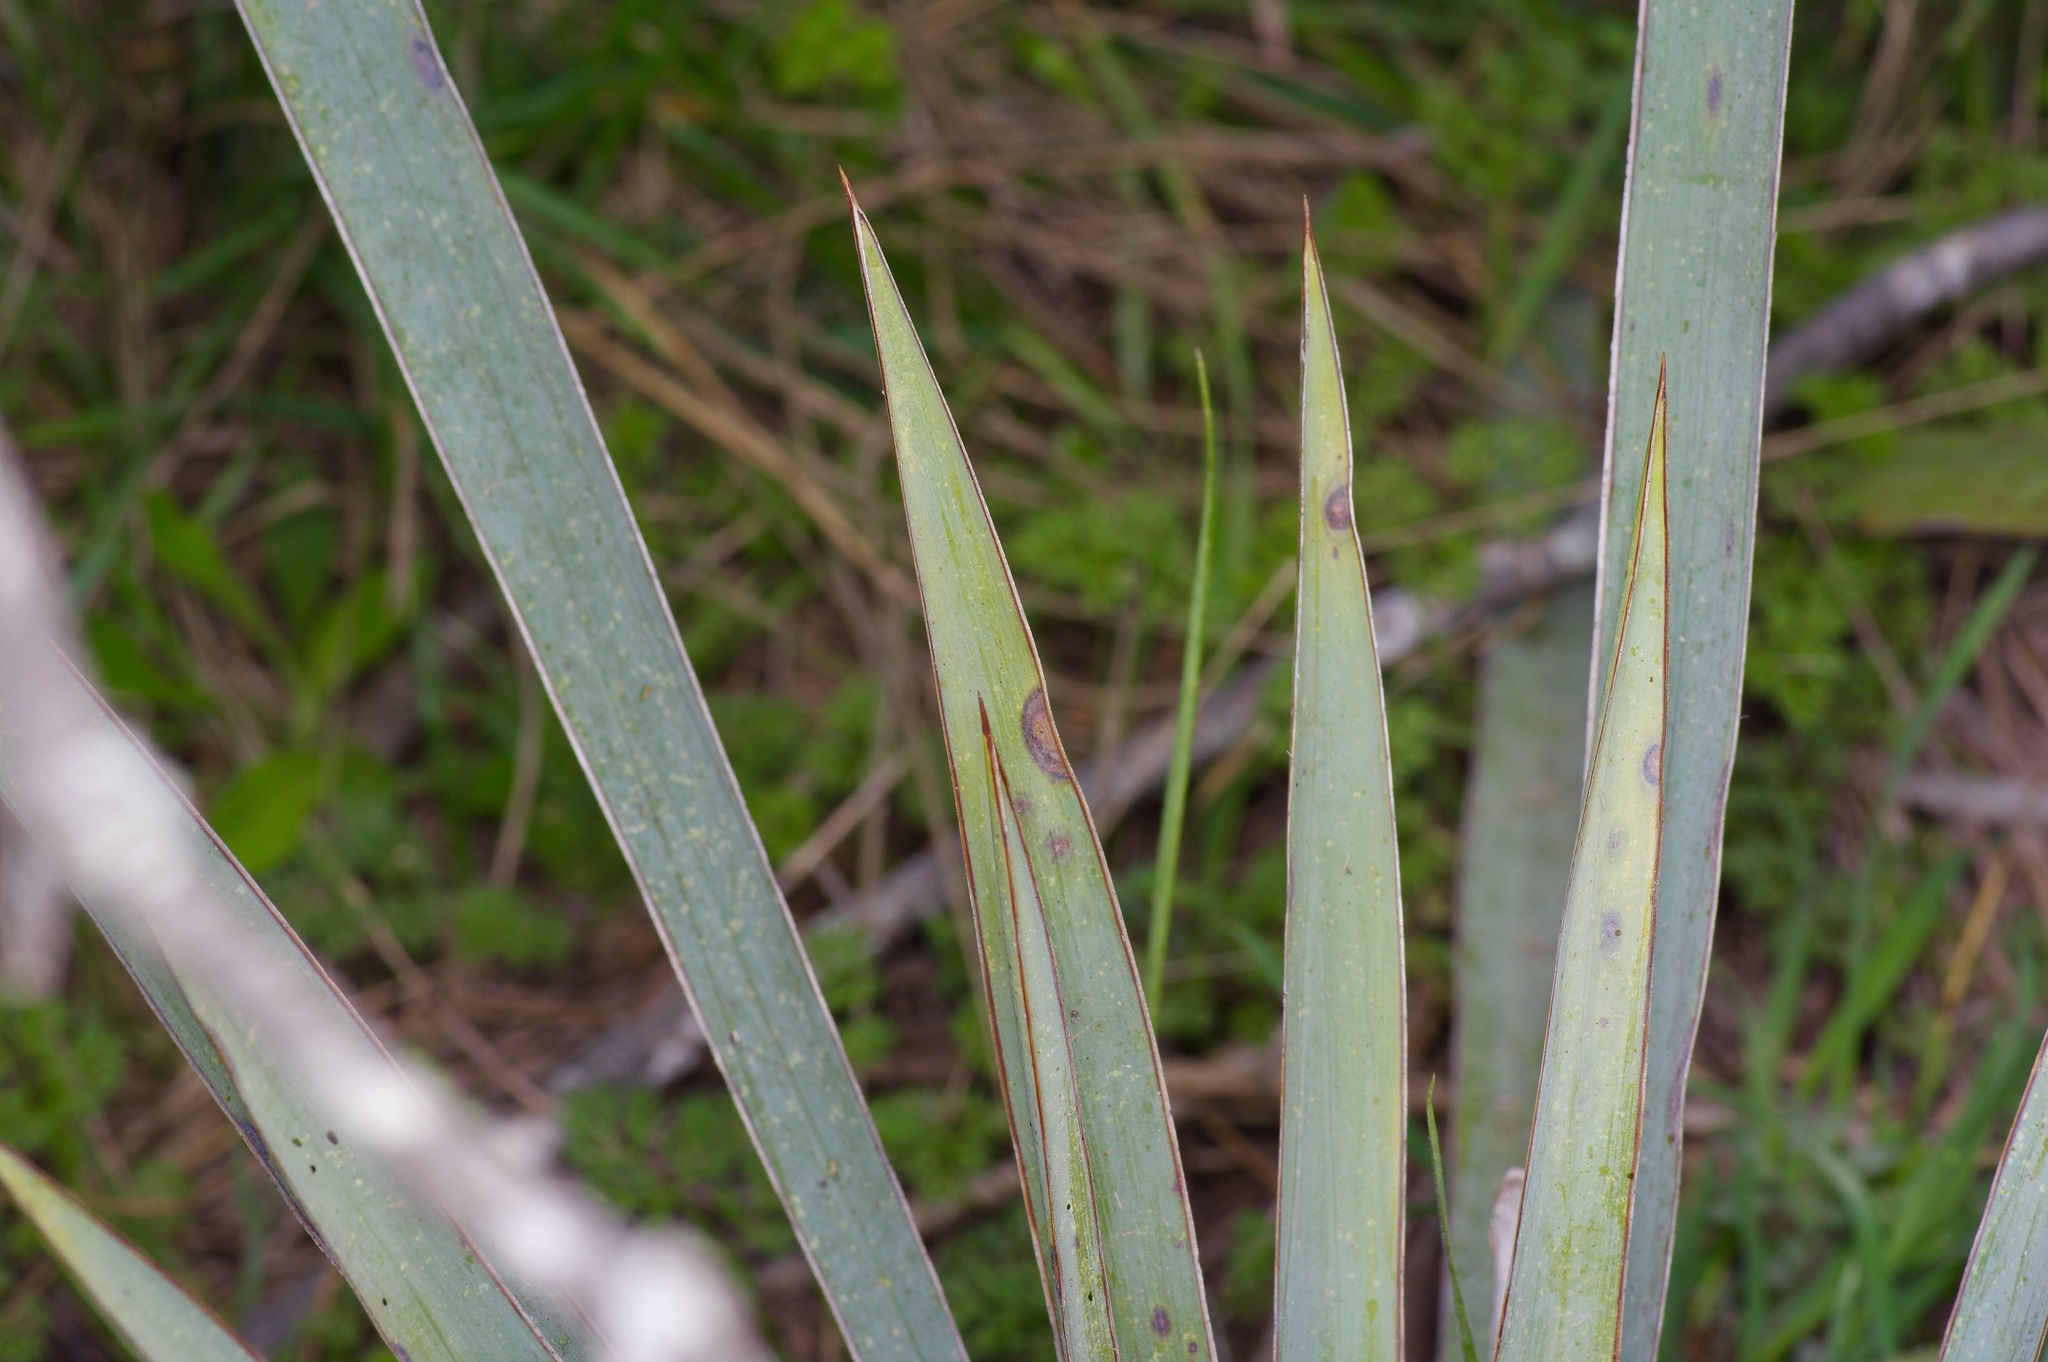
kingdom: Plantae
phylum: Tracheophyta
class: Liliopsida
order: Asparagales
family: Asparagaceae
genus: Yucca
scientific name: Yucca pallida
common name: Pale leaf yucca
